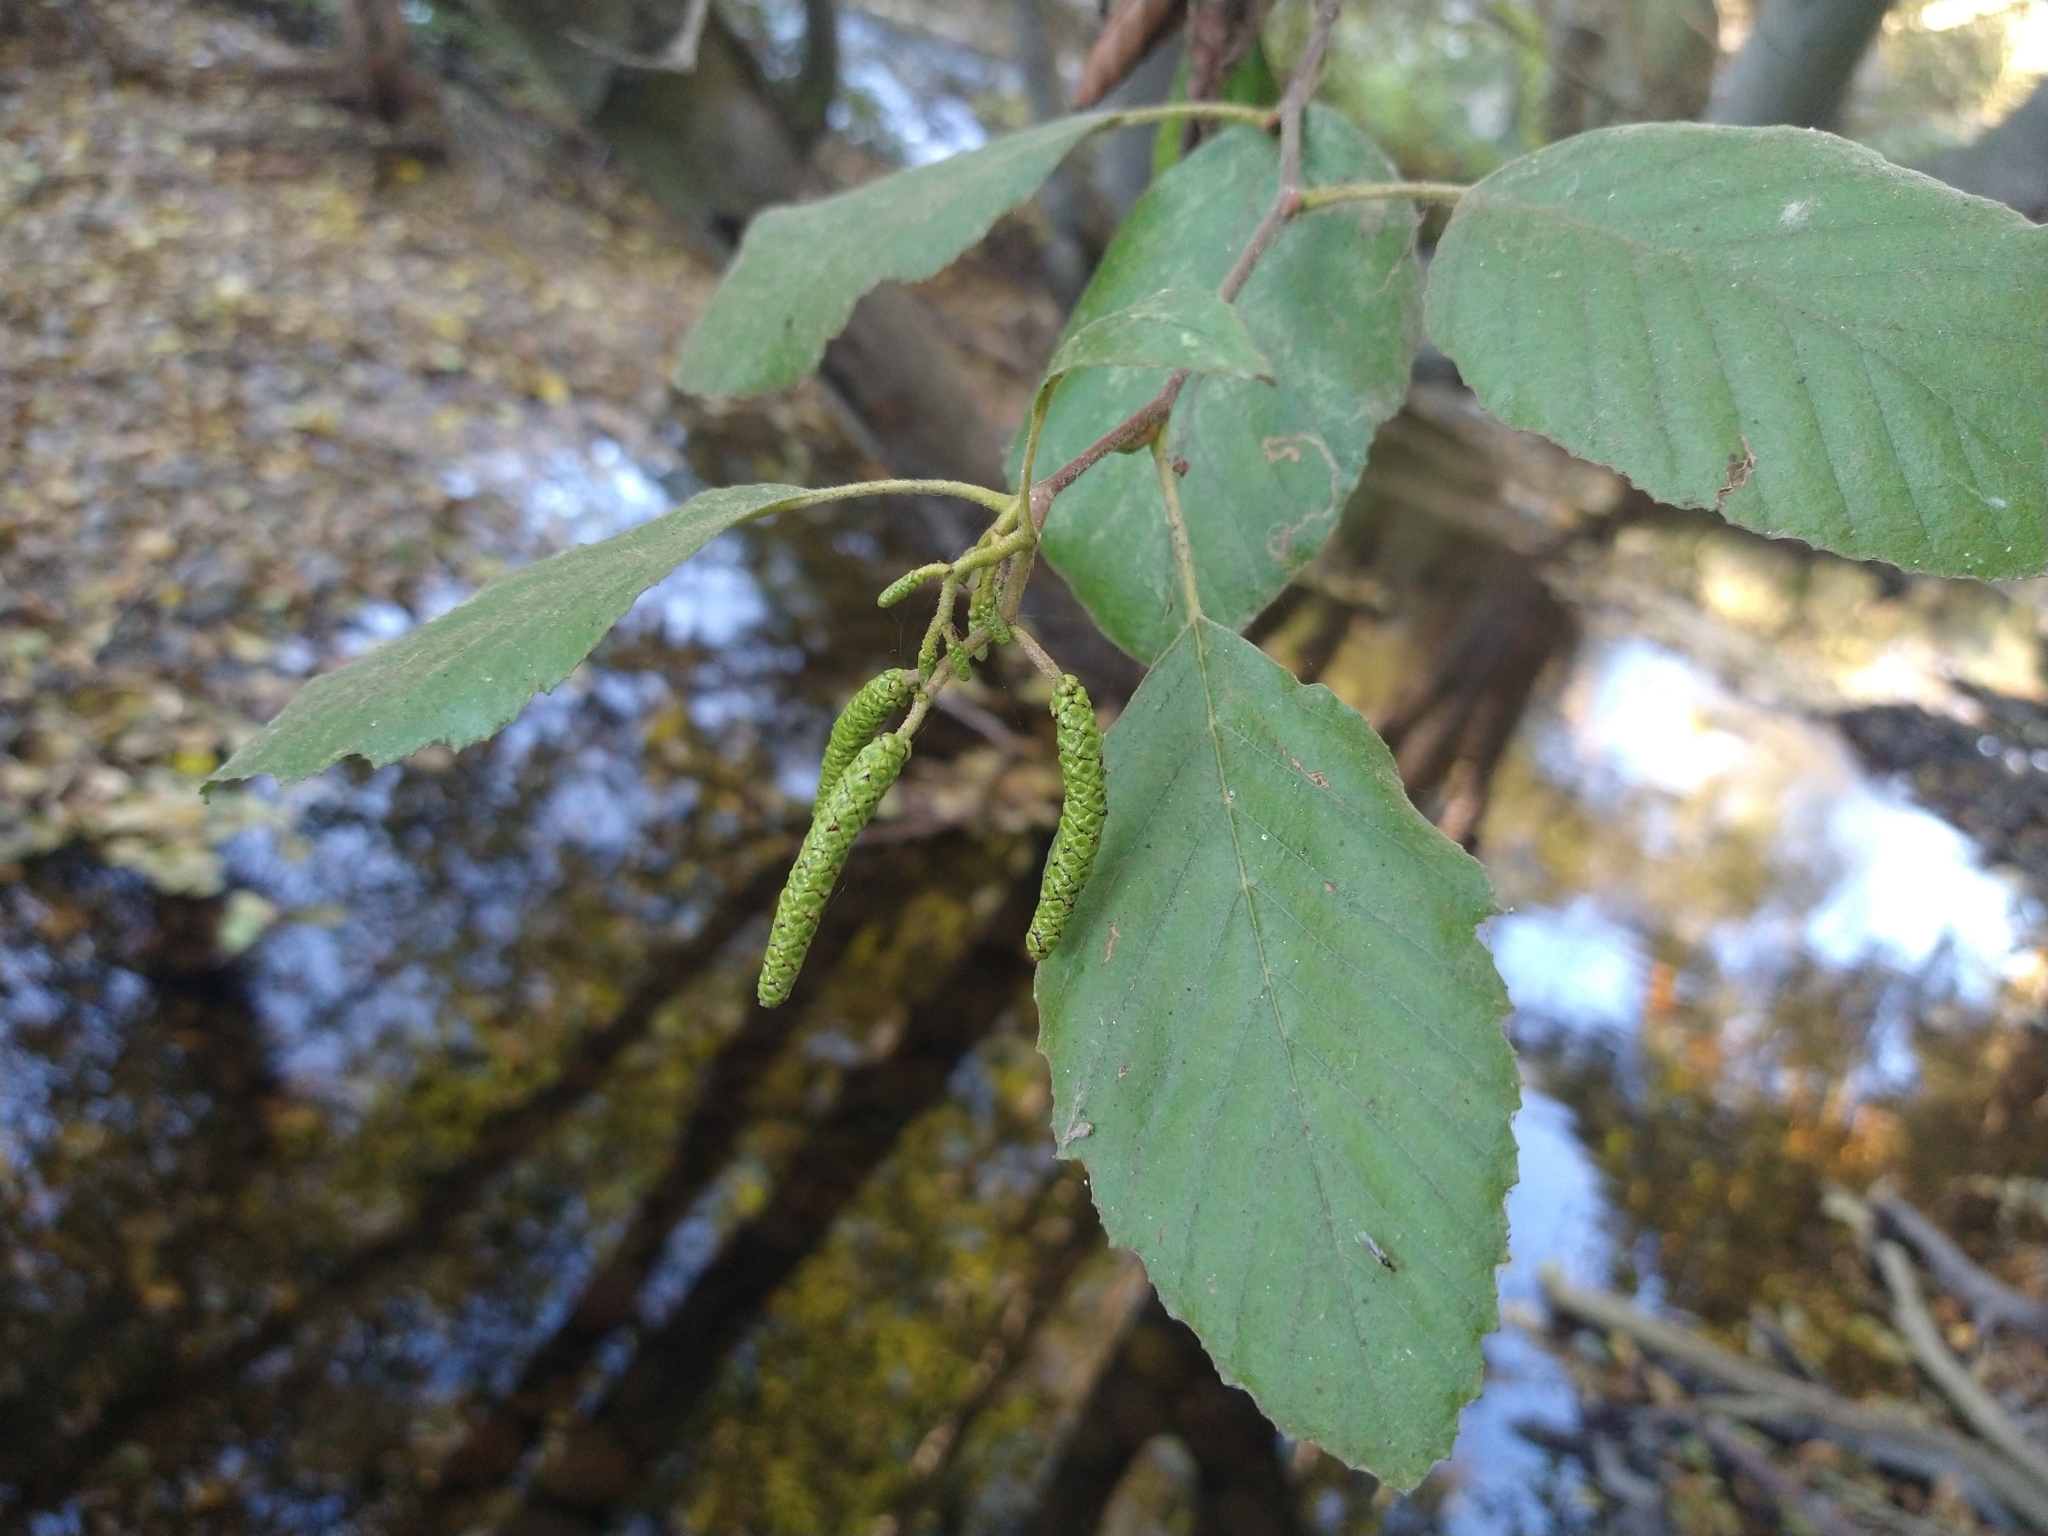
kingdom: Plantae
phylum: Tracheophyta
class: Magnoliopsida
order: Fagales
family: Betulaceae
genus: Alnus
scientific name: Alnus rhombifolia
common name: California alder
